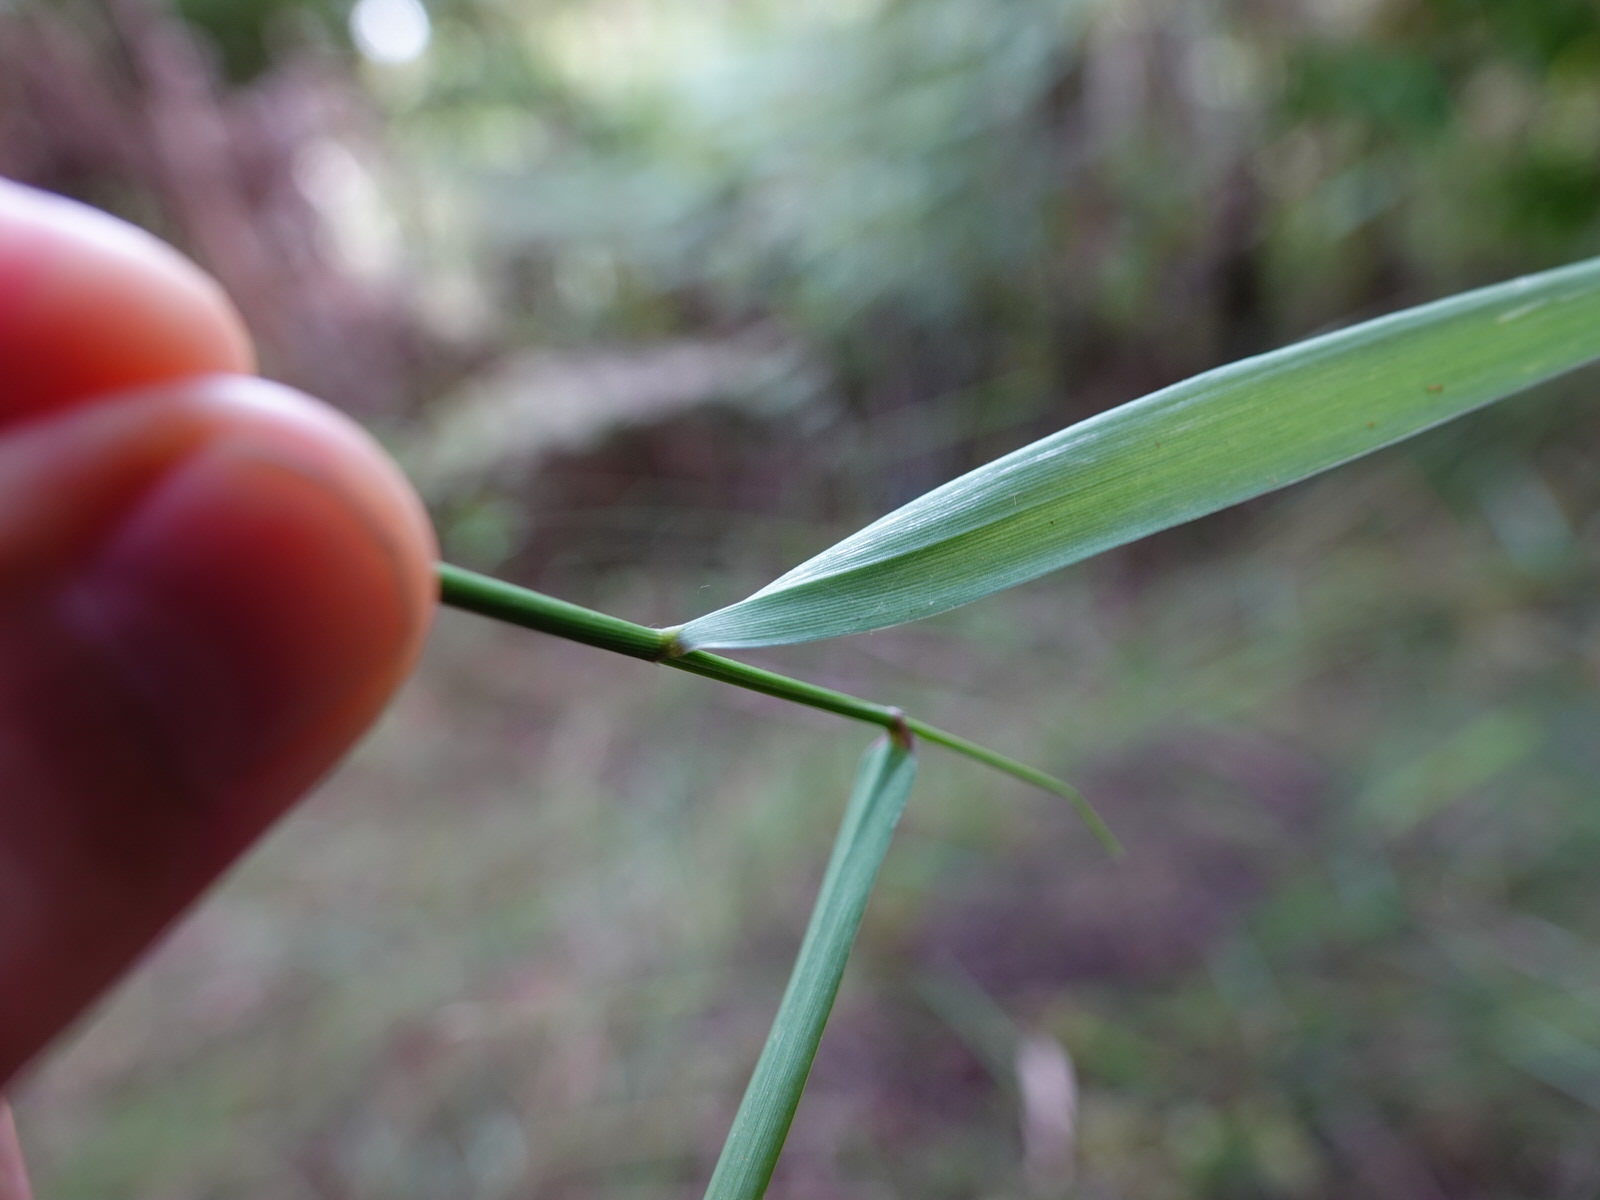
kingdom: Plantae
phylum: Tracheophyta
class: Liliopsida
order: Poales
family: Poaceae
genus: Ehrharta
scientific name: Ehrharta erecta
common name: Panic veldtgrass
